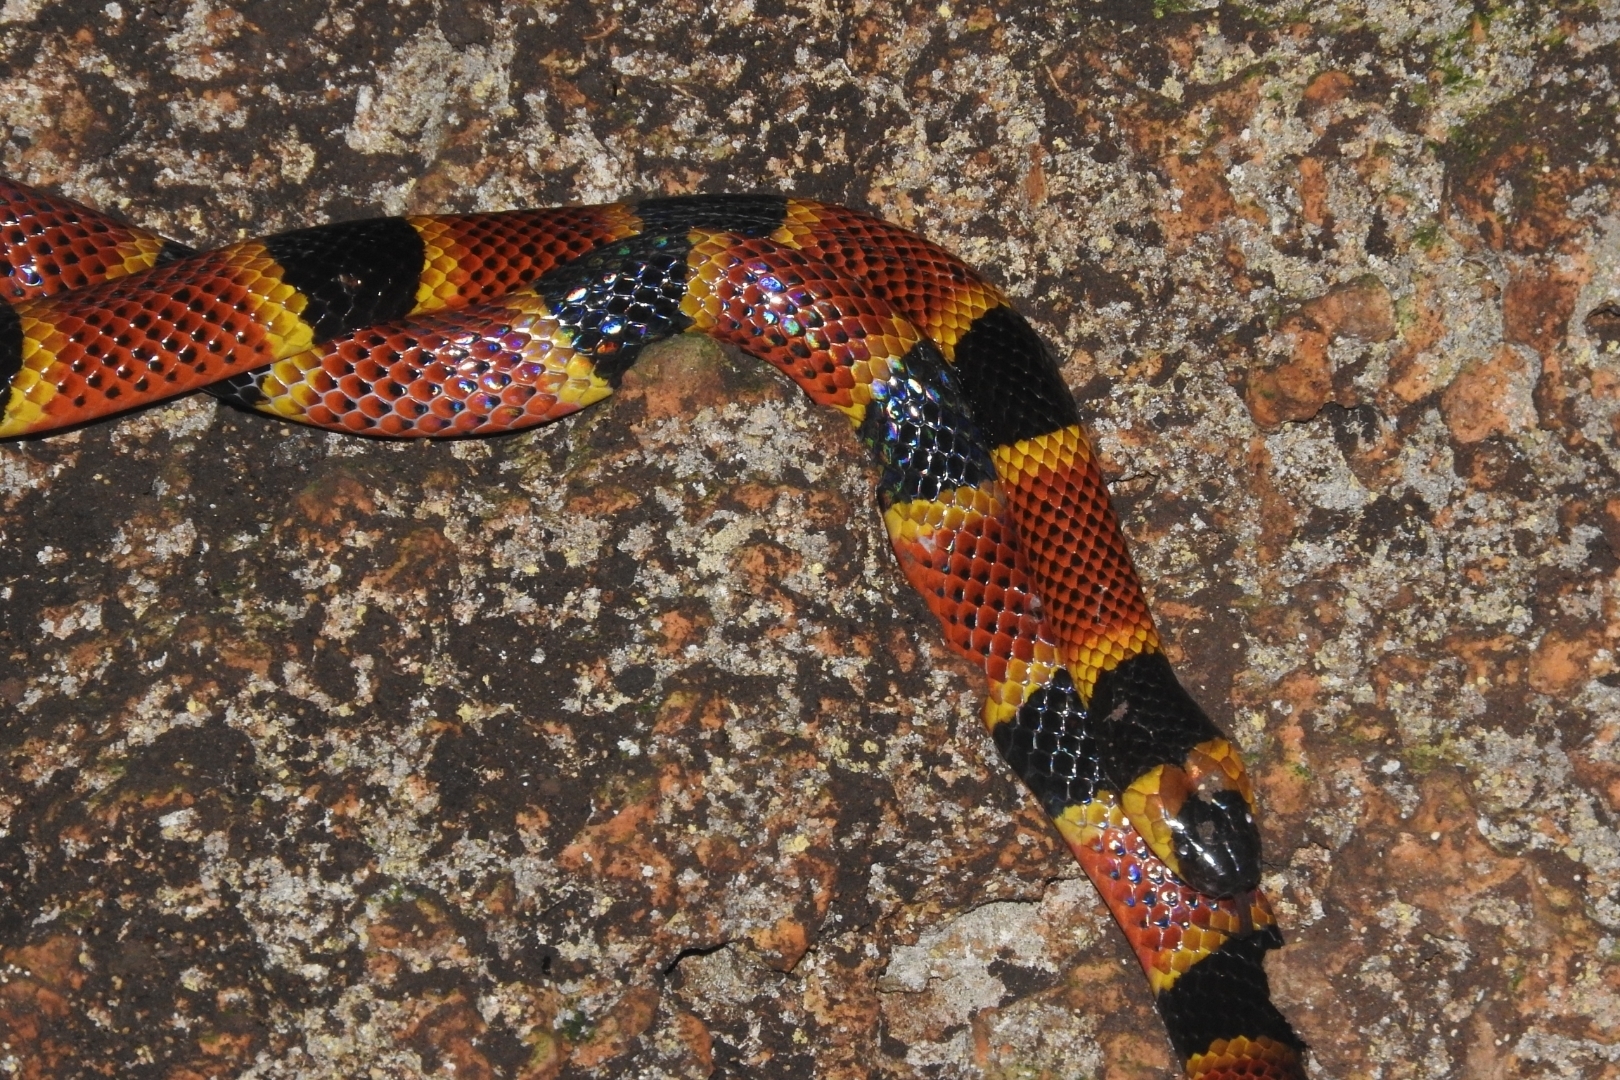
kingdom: Animalia
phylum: Chordata
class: Squamata
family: Elapidae
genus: Micrurus
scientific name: Micrurus diastema
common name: Diastema coral snake
